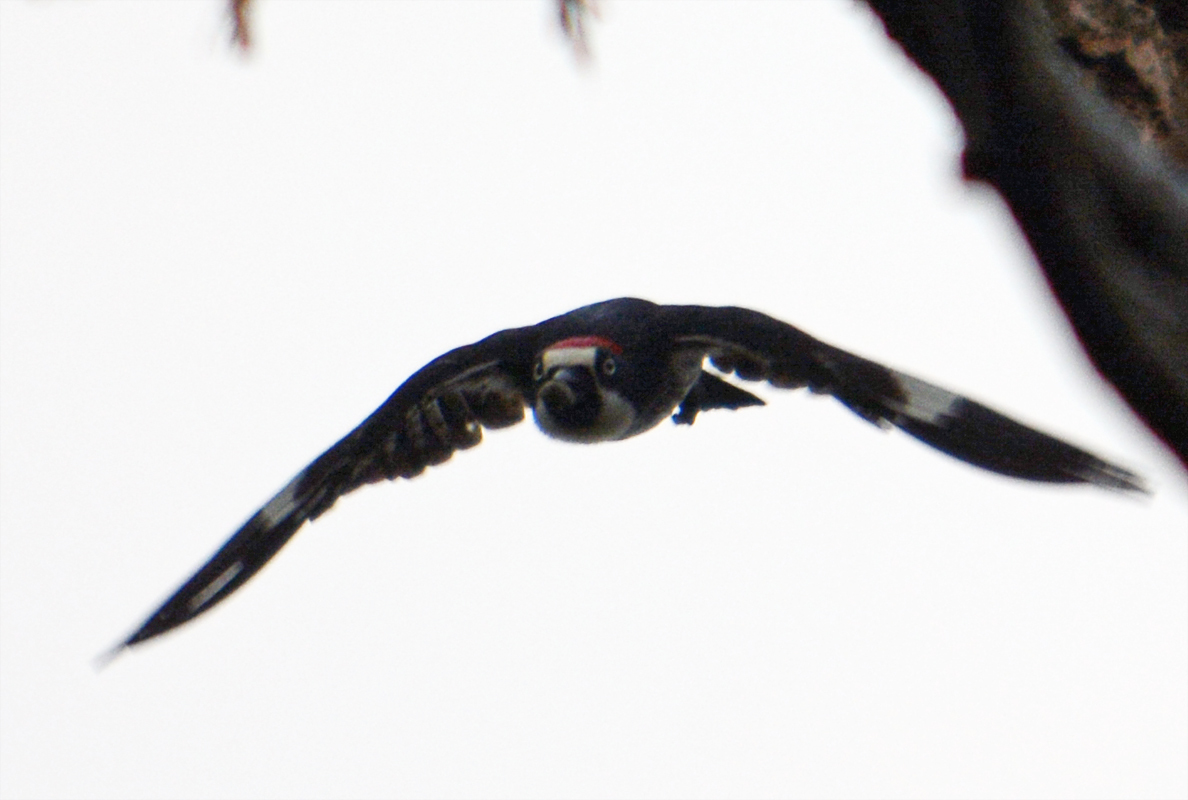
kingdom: Animalia
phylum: Chordata
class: Aves
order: Piciformes
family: Picidae
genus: Melanerpes
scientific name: Melanerpes formicivorus
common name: Acorn woodpecker
